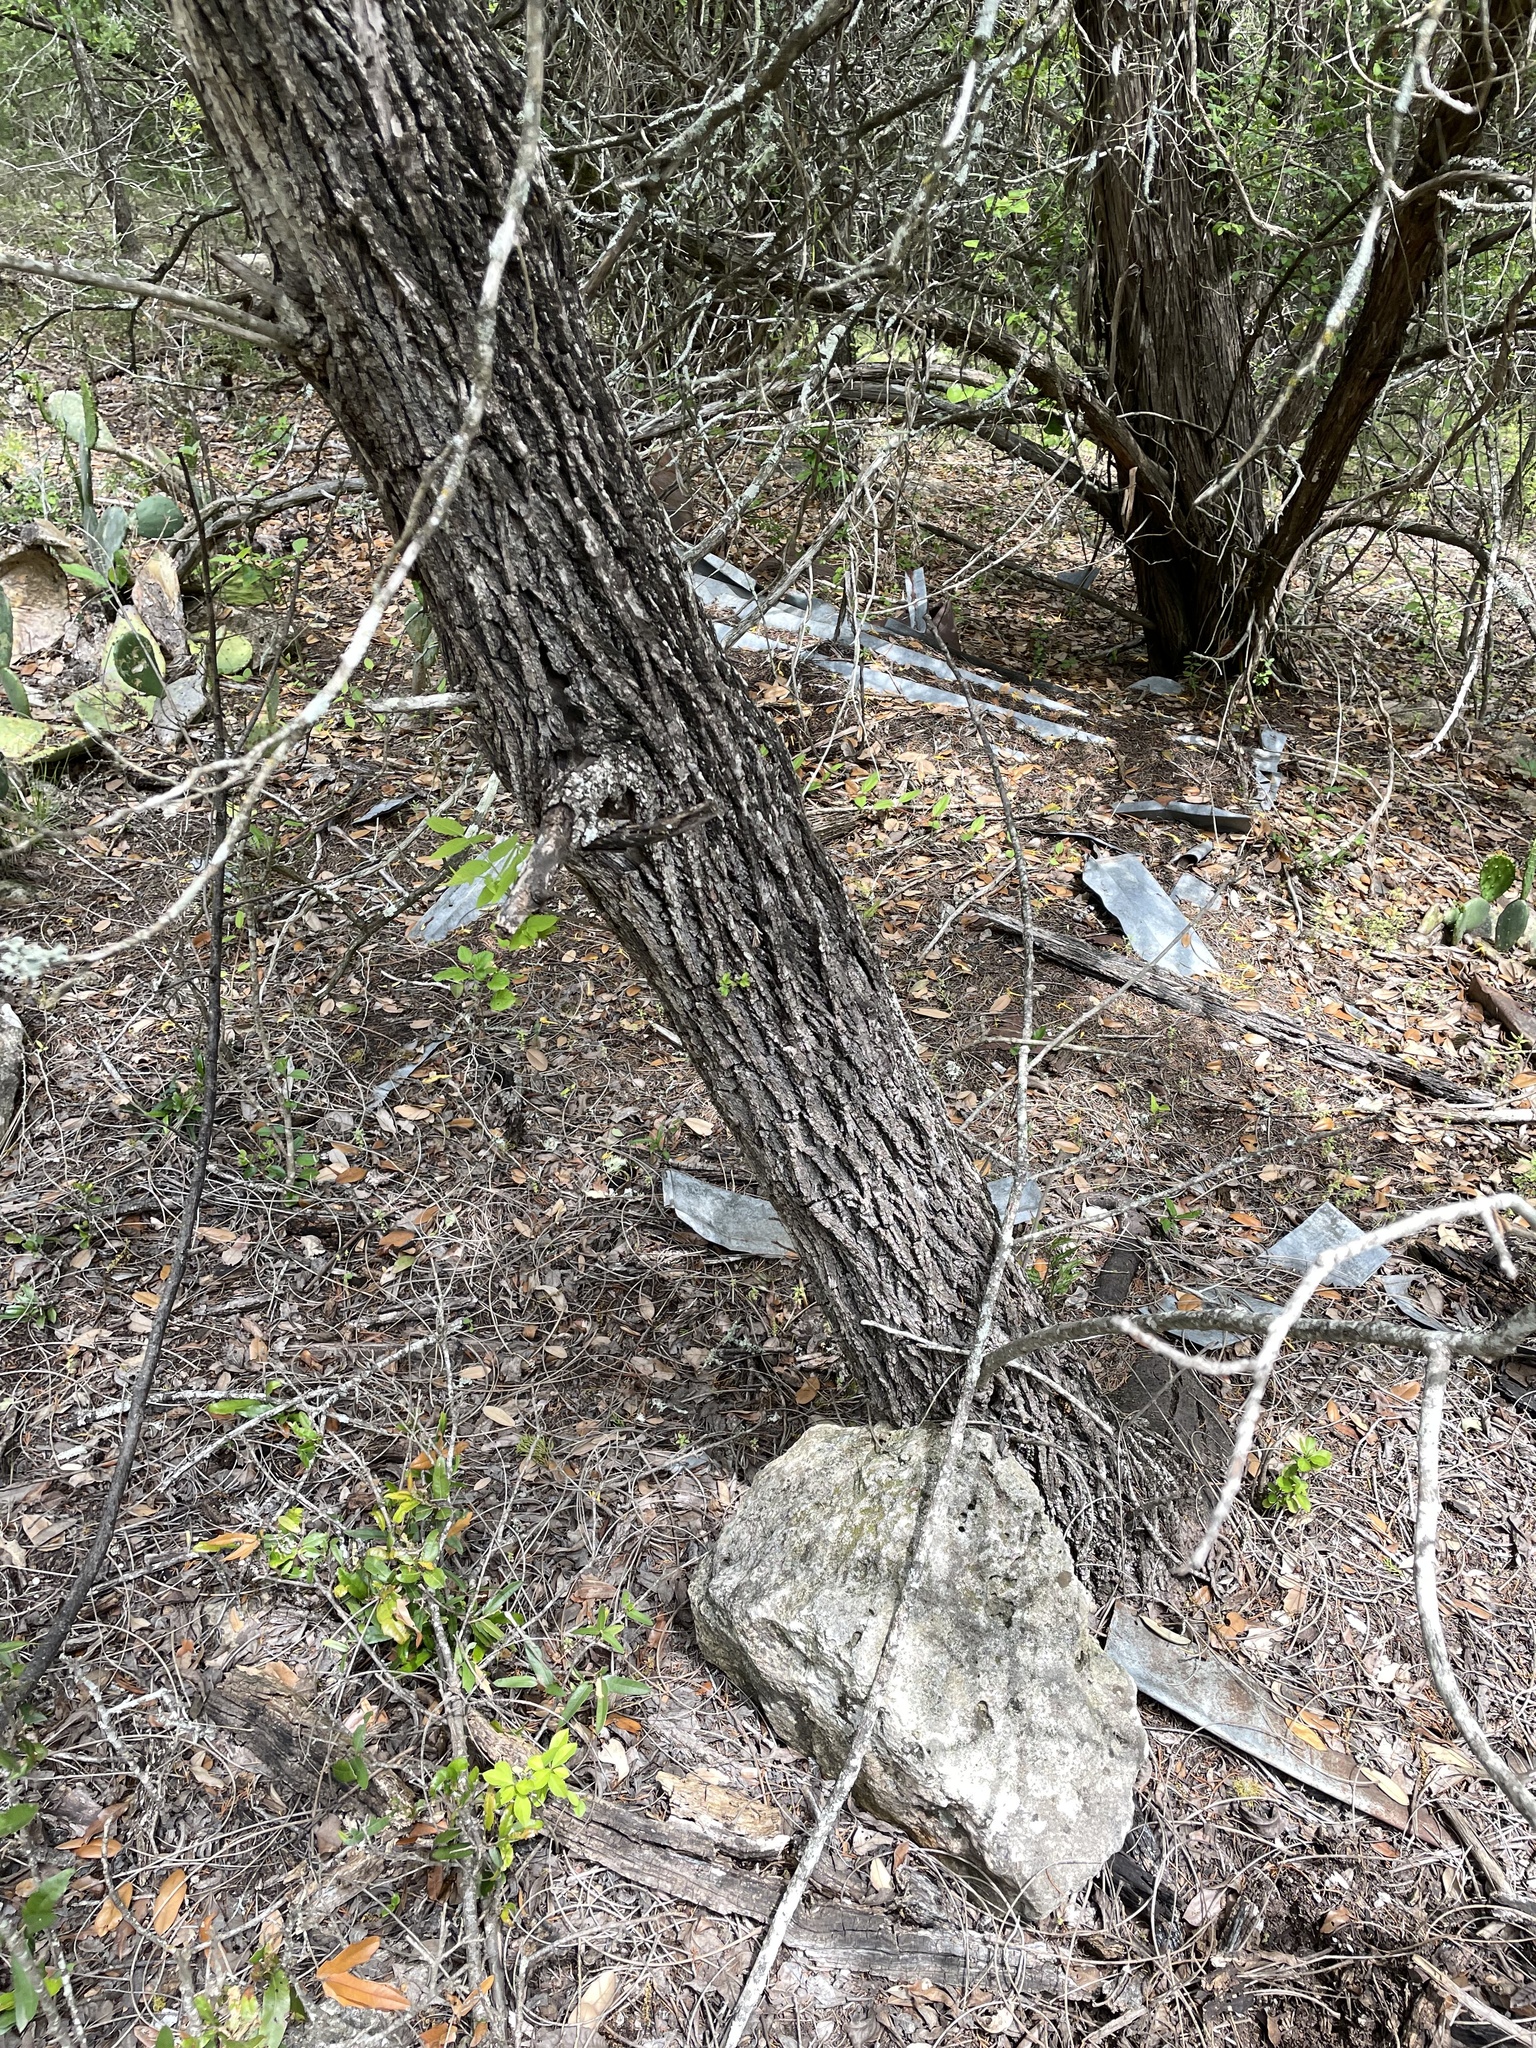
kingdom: Plantae
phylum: Tracheophyta
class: Magnoliopsida
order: Fagales
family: Juglandaceae
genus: Juglans
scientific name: Juglans major
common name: Arizona walnut
